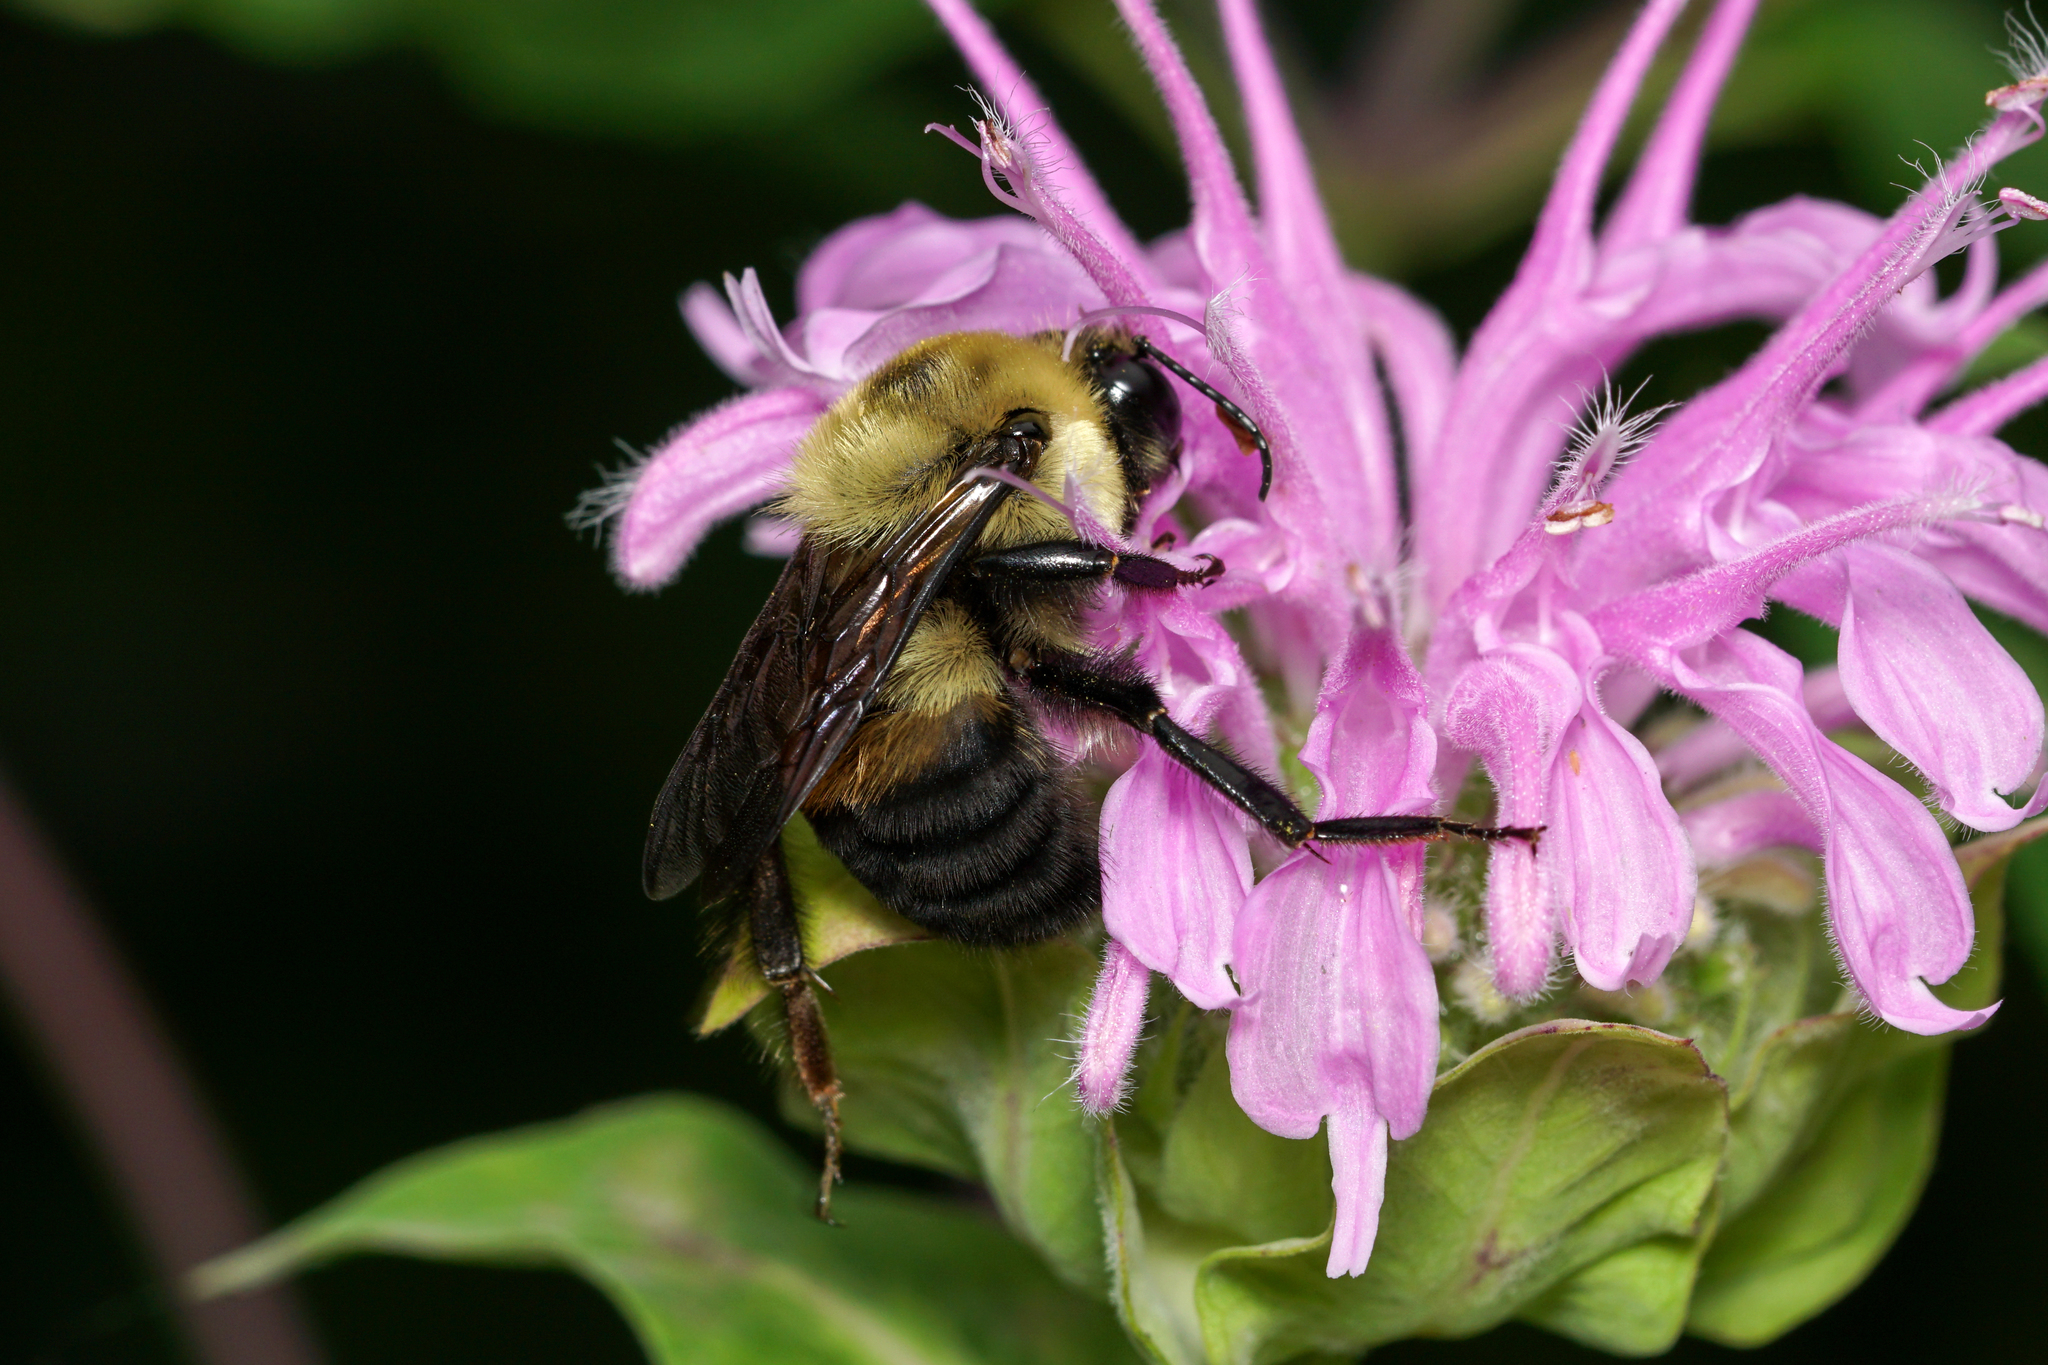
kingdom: Animalia
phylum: Arthropoda
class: Insecta
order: Hymenoptera
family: Apidae
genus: Bombus
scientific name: Bombus griseocollis
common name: Brown-belted bumble bee
